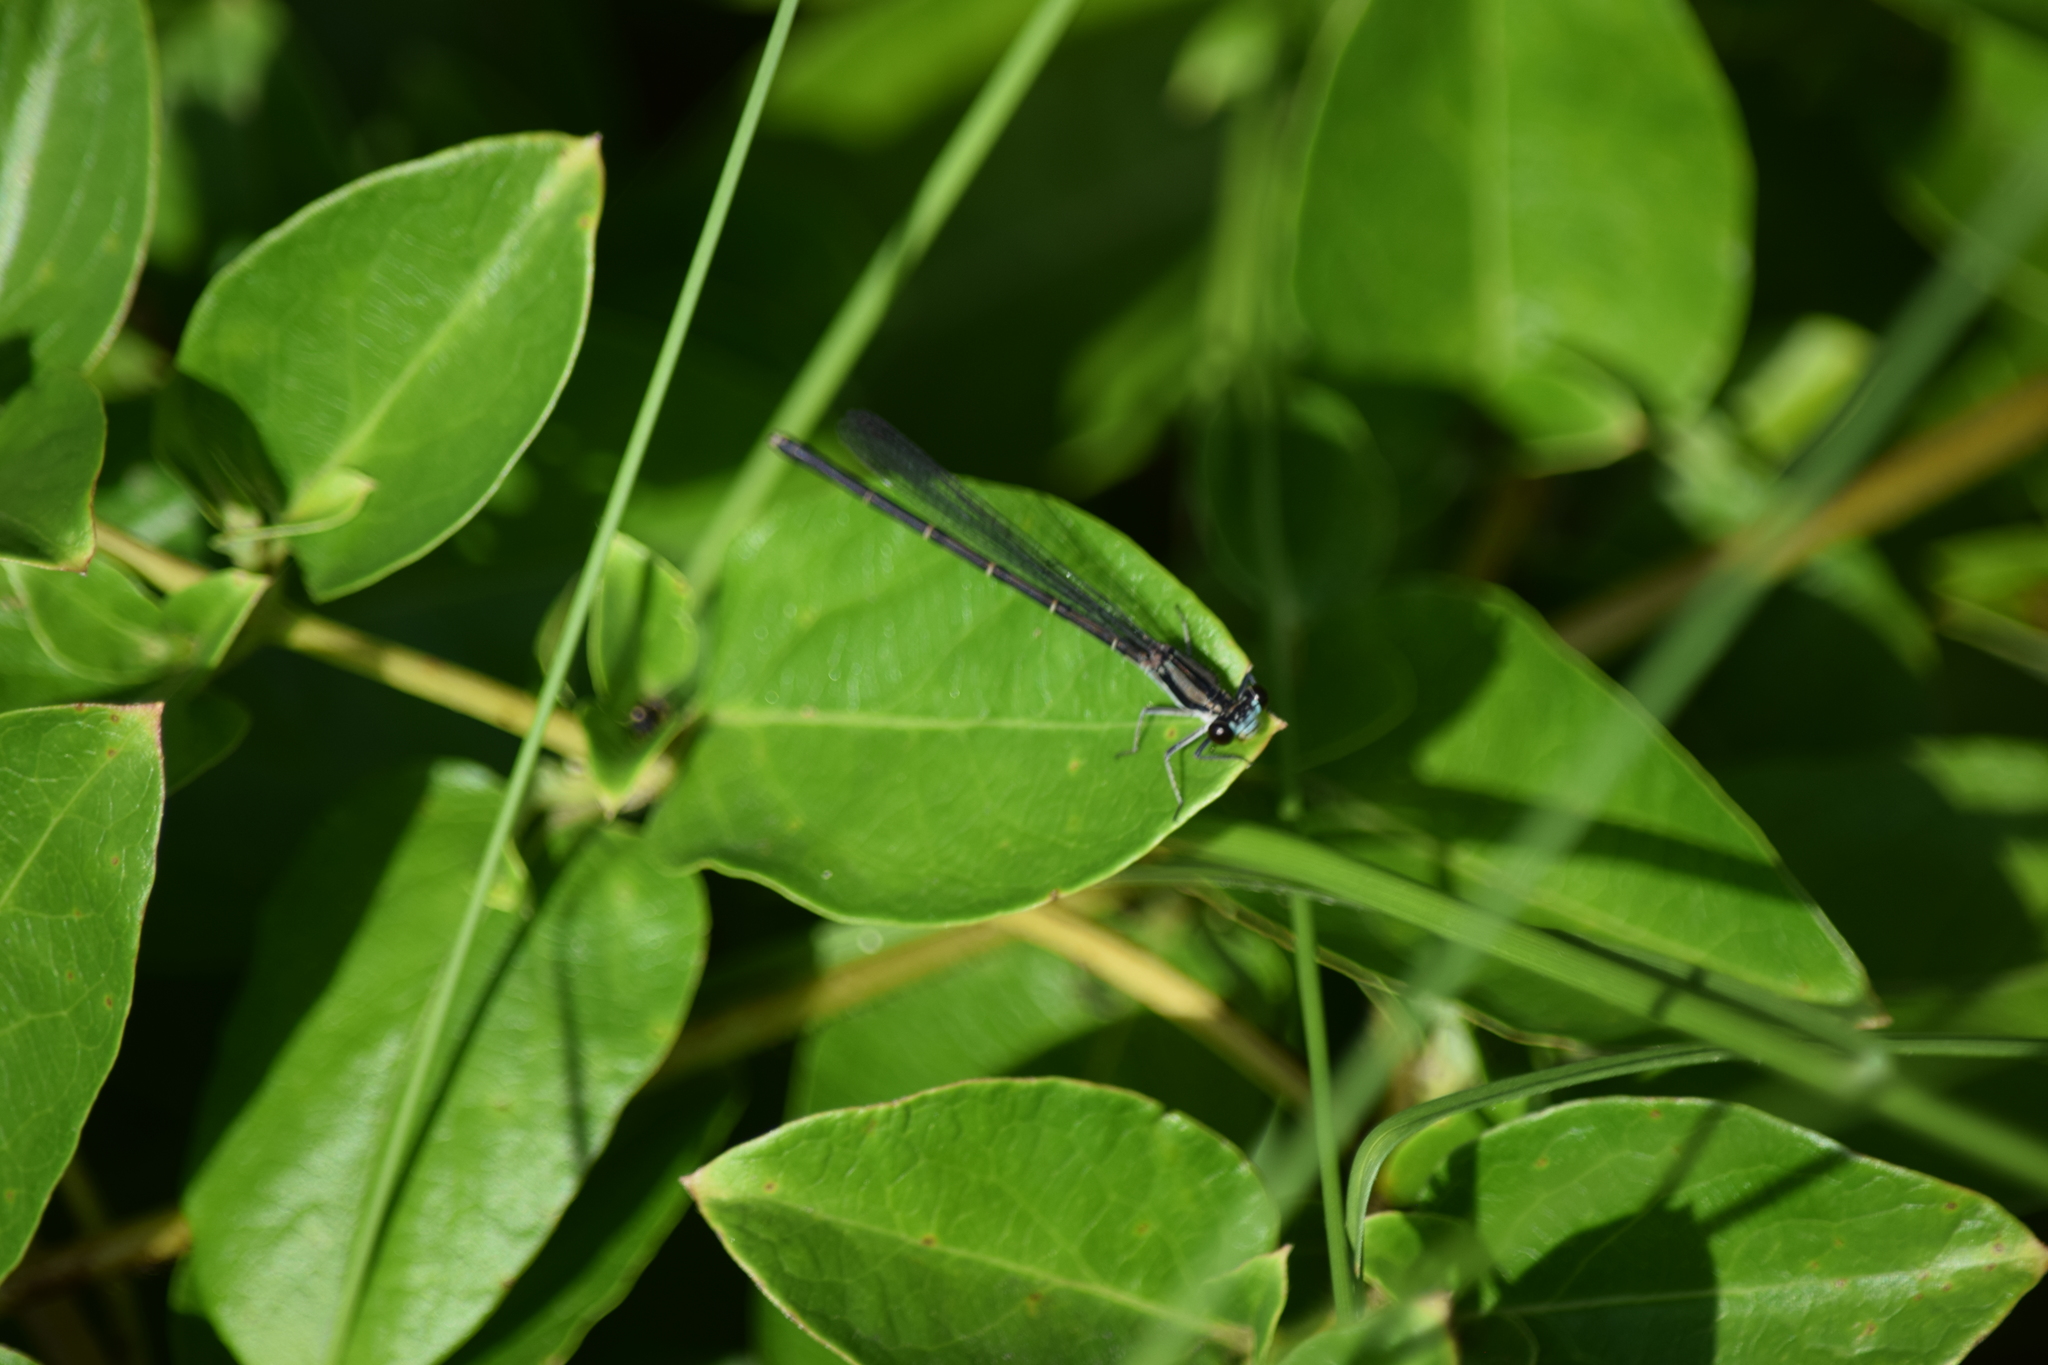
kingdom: Animalia
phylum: Arthropoda
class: Insecta
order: Odonata
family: Coenagrionidae
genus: Argia
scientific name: Argia tibialis
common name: Blue-tipped dancer
